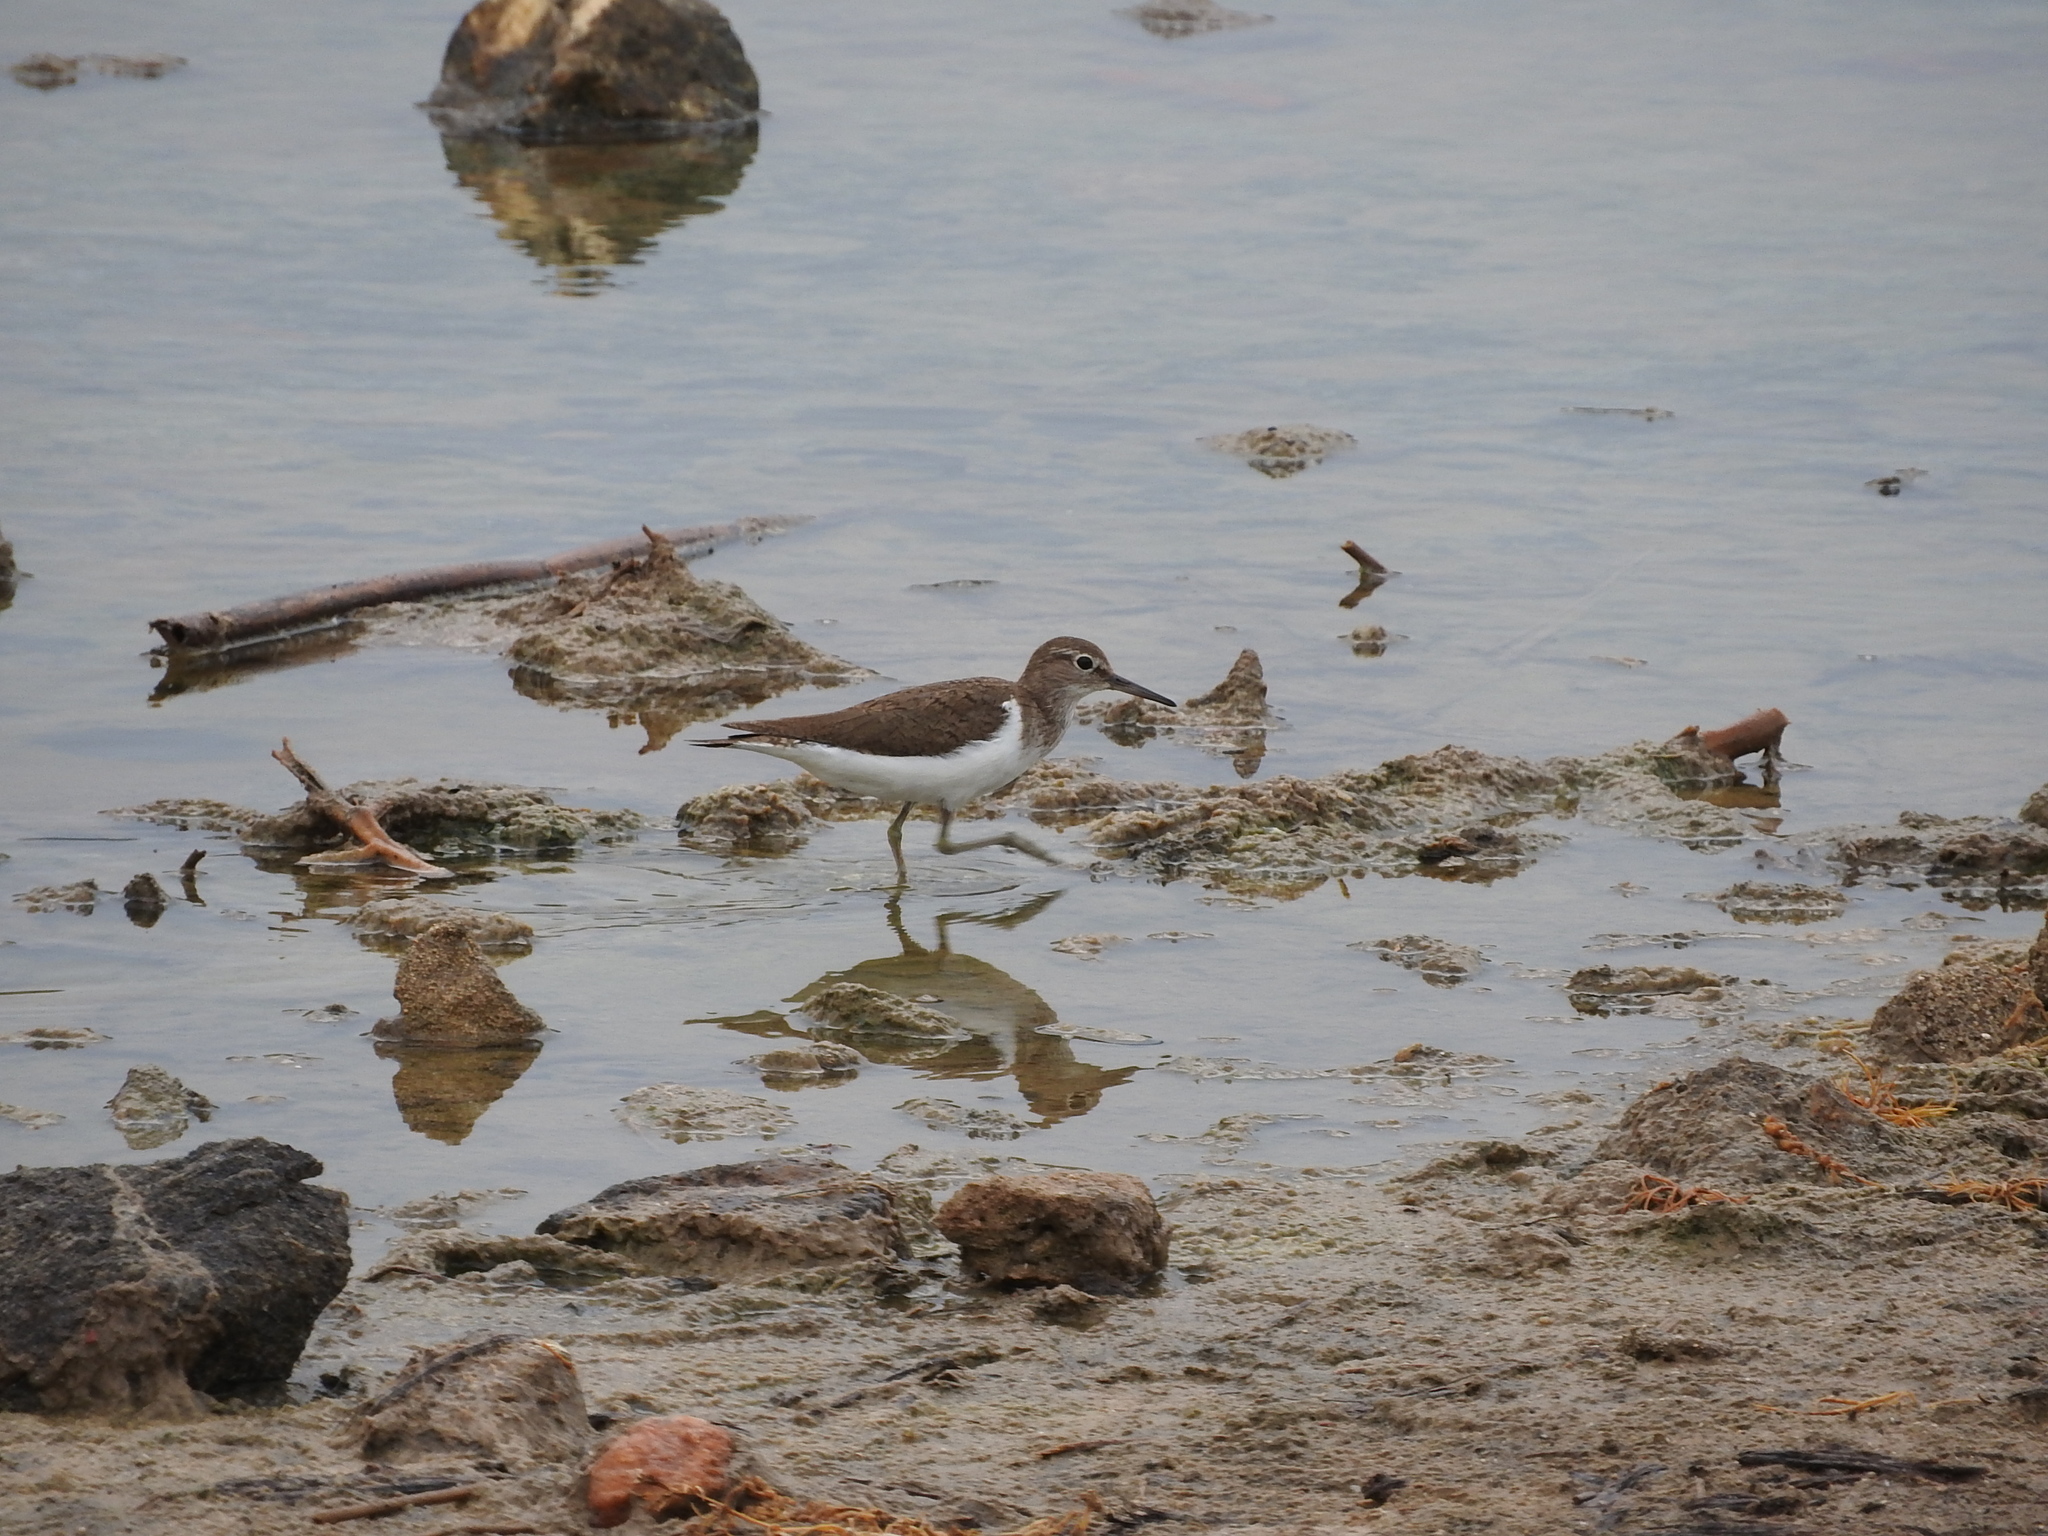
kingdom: Animalia
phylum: Chordata
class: Aves
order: Charadriiformes
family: Scolopacidae
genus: Actitis
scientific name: Actitis hypoleucos
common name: Common sandpiper
